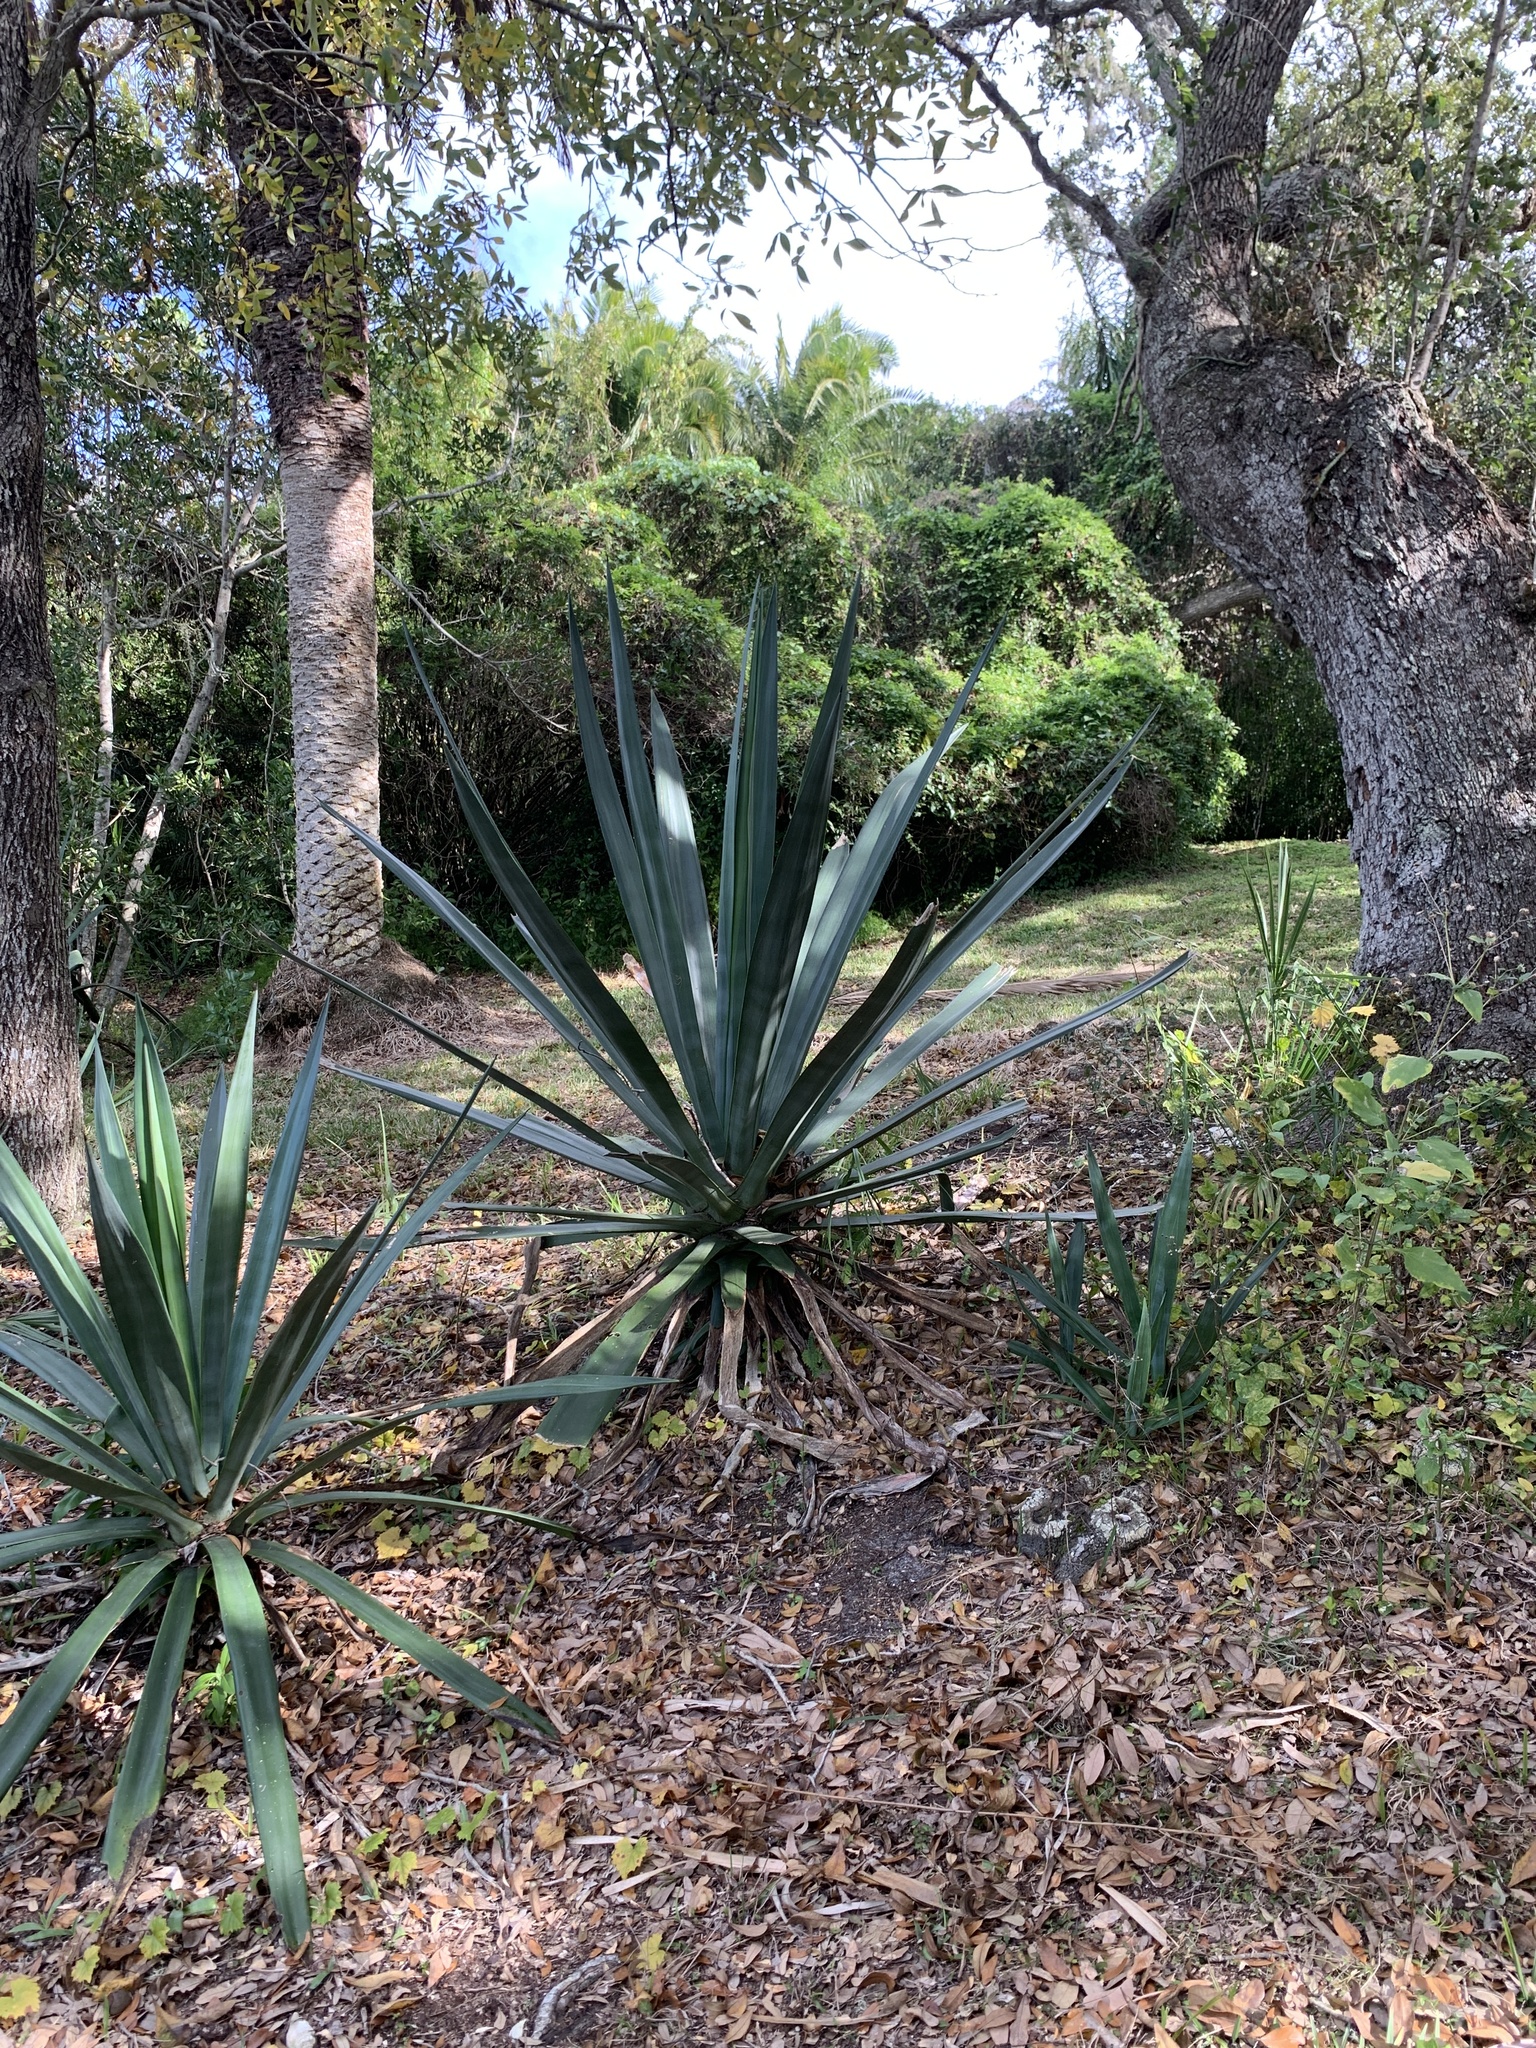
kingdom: Plantae
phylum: Tracheophyta
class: Liliopsida
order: Asparagales
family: Asparagaceae
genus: Agave
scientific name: Agave sisalana
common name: Sisal hemp
